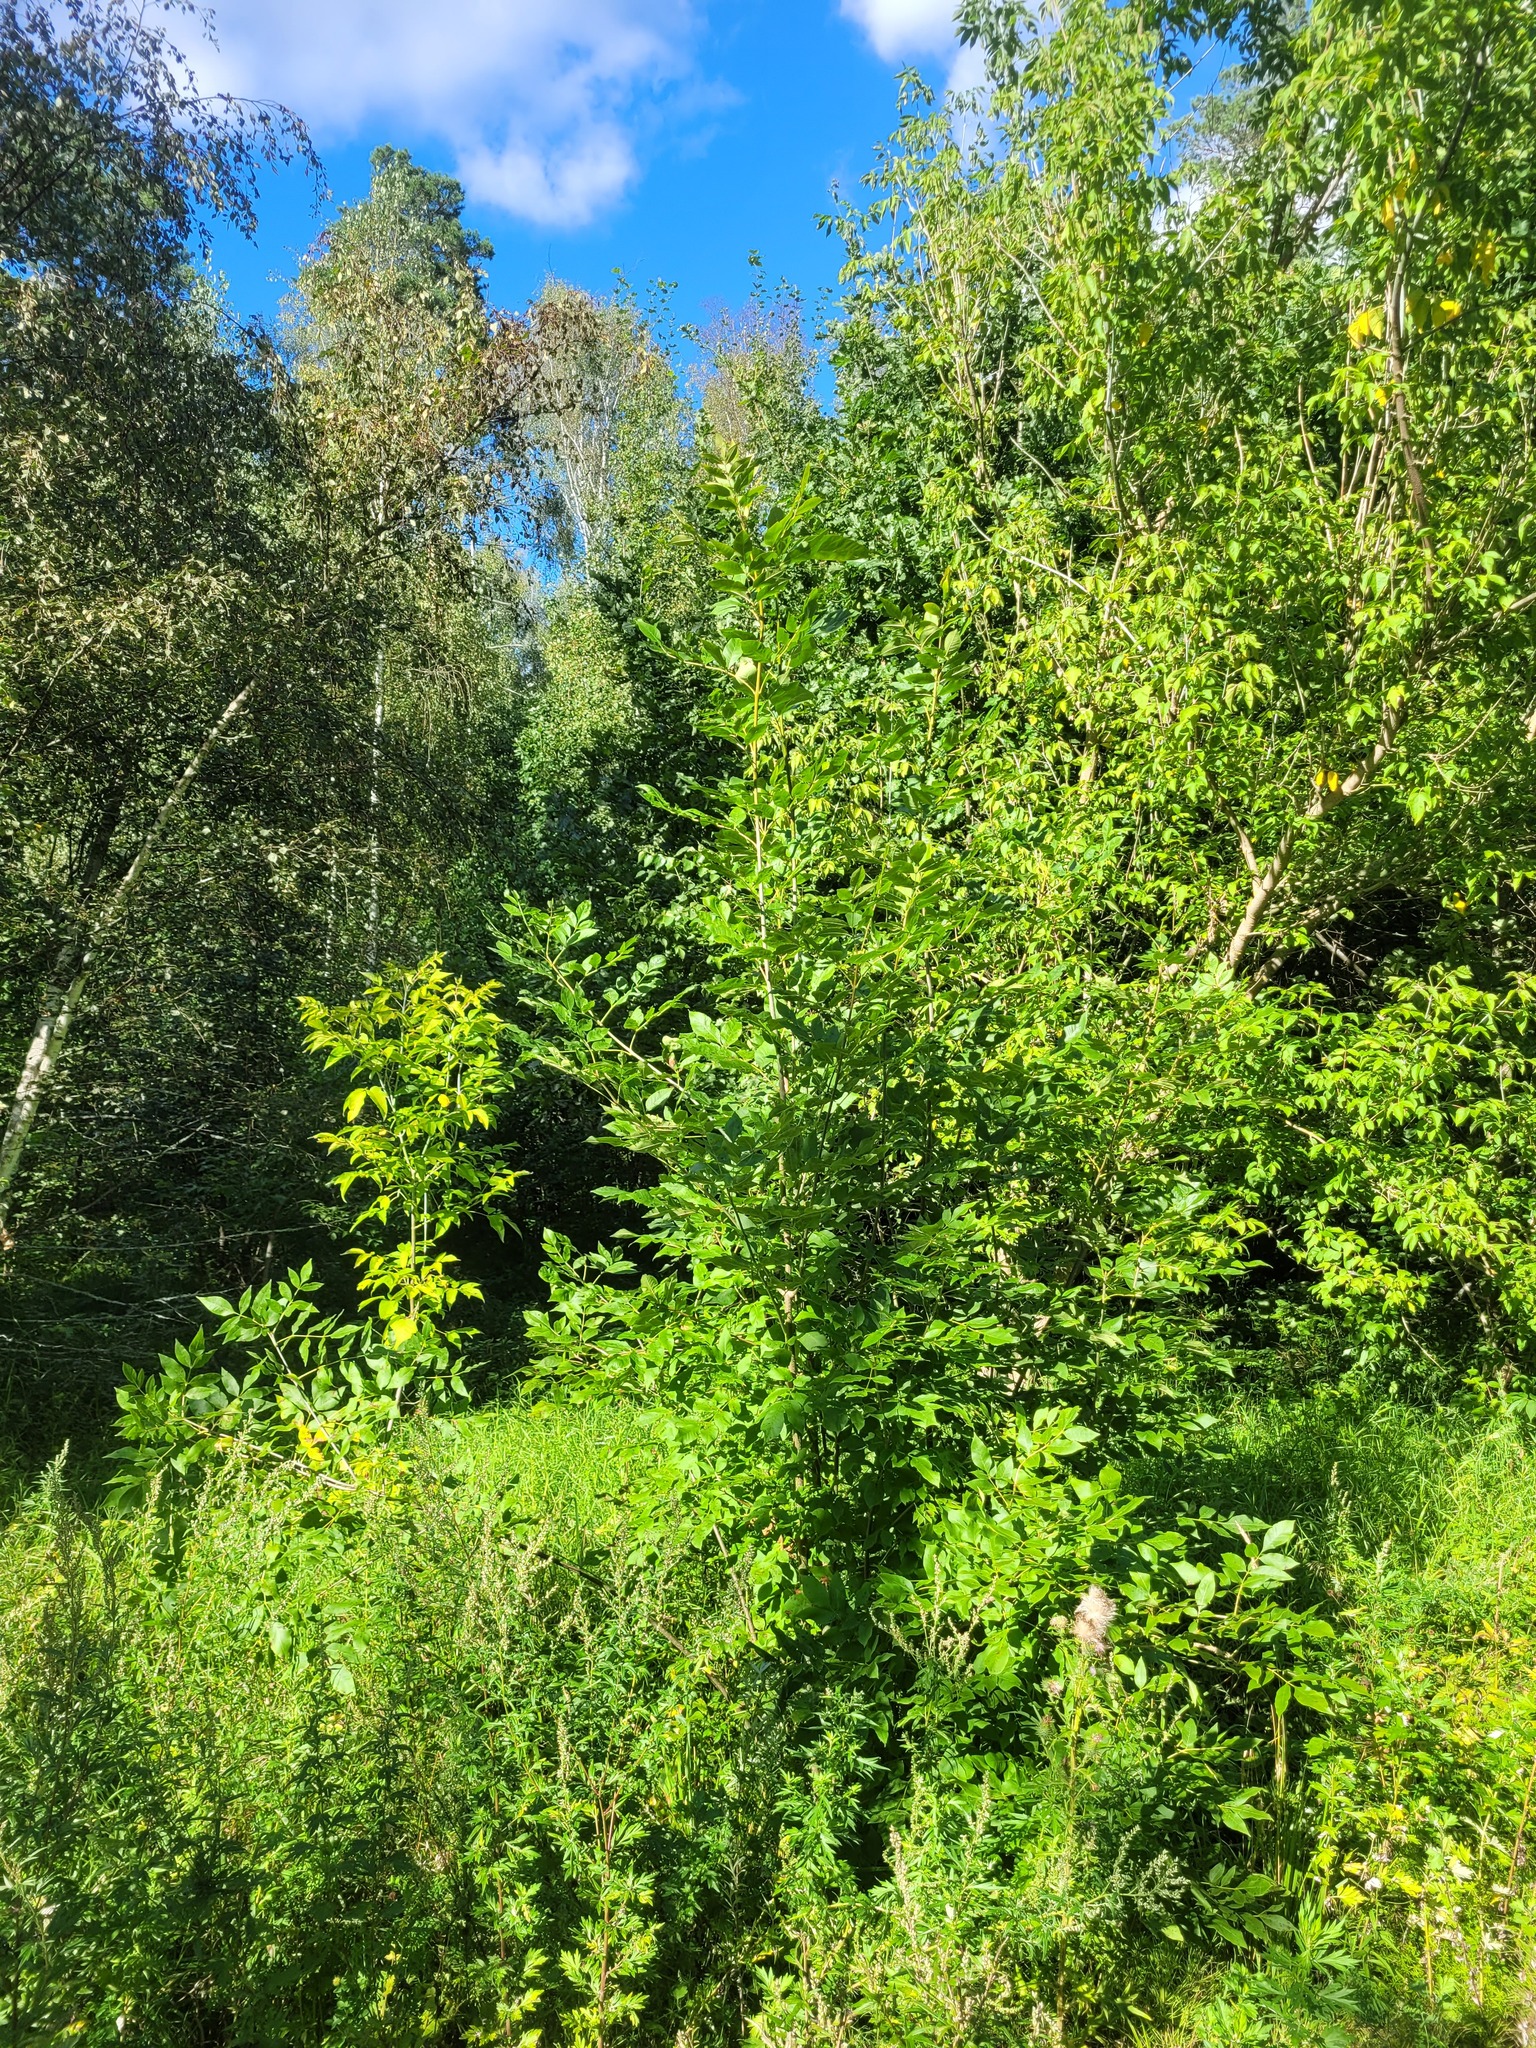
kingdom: Plantae
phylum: Tracheophyta
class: Magnoliopsida
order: Lamiales
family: Oleaceae
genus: Fraxinus
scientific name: Fraxinus pennsylvanica
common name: Green ash
